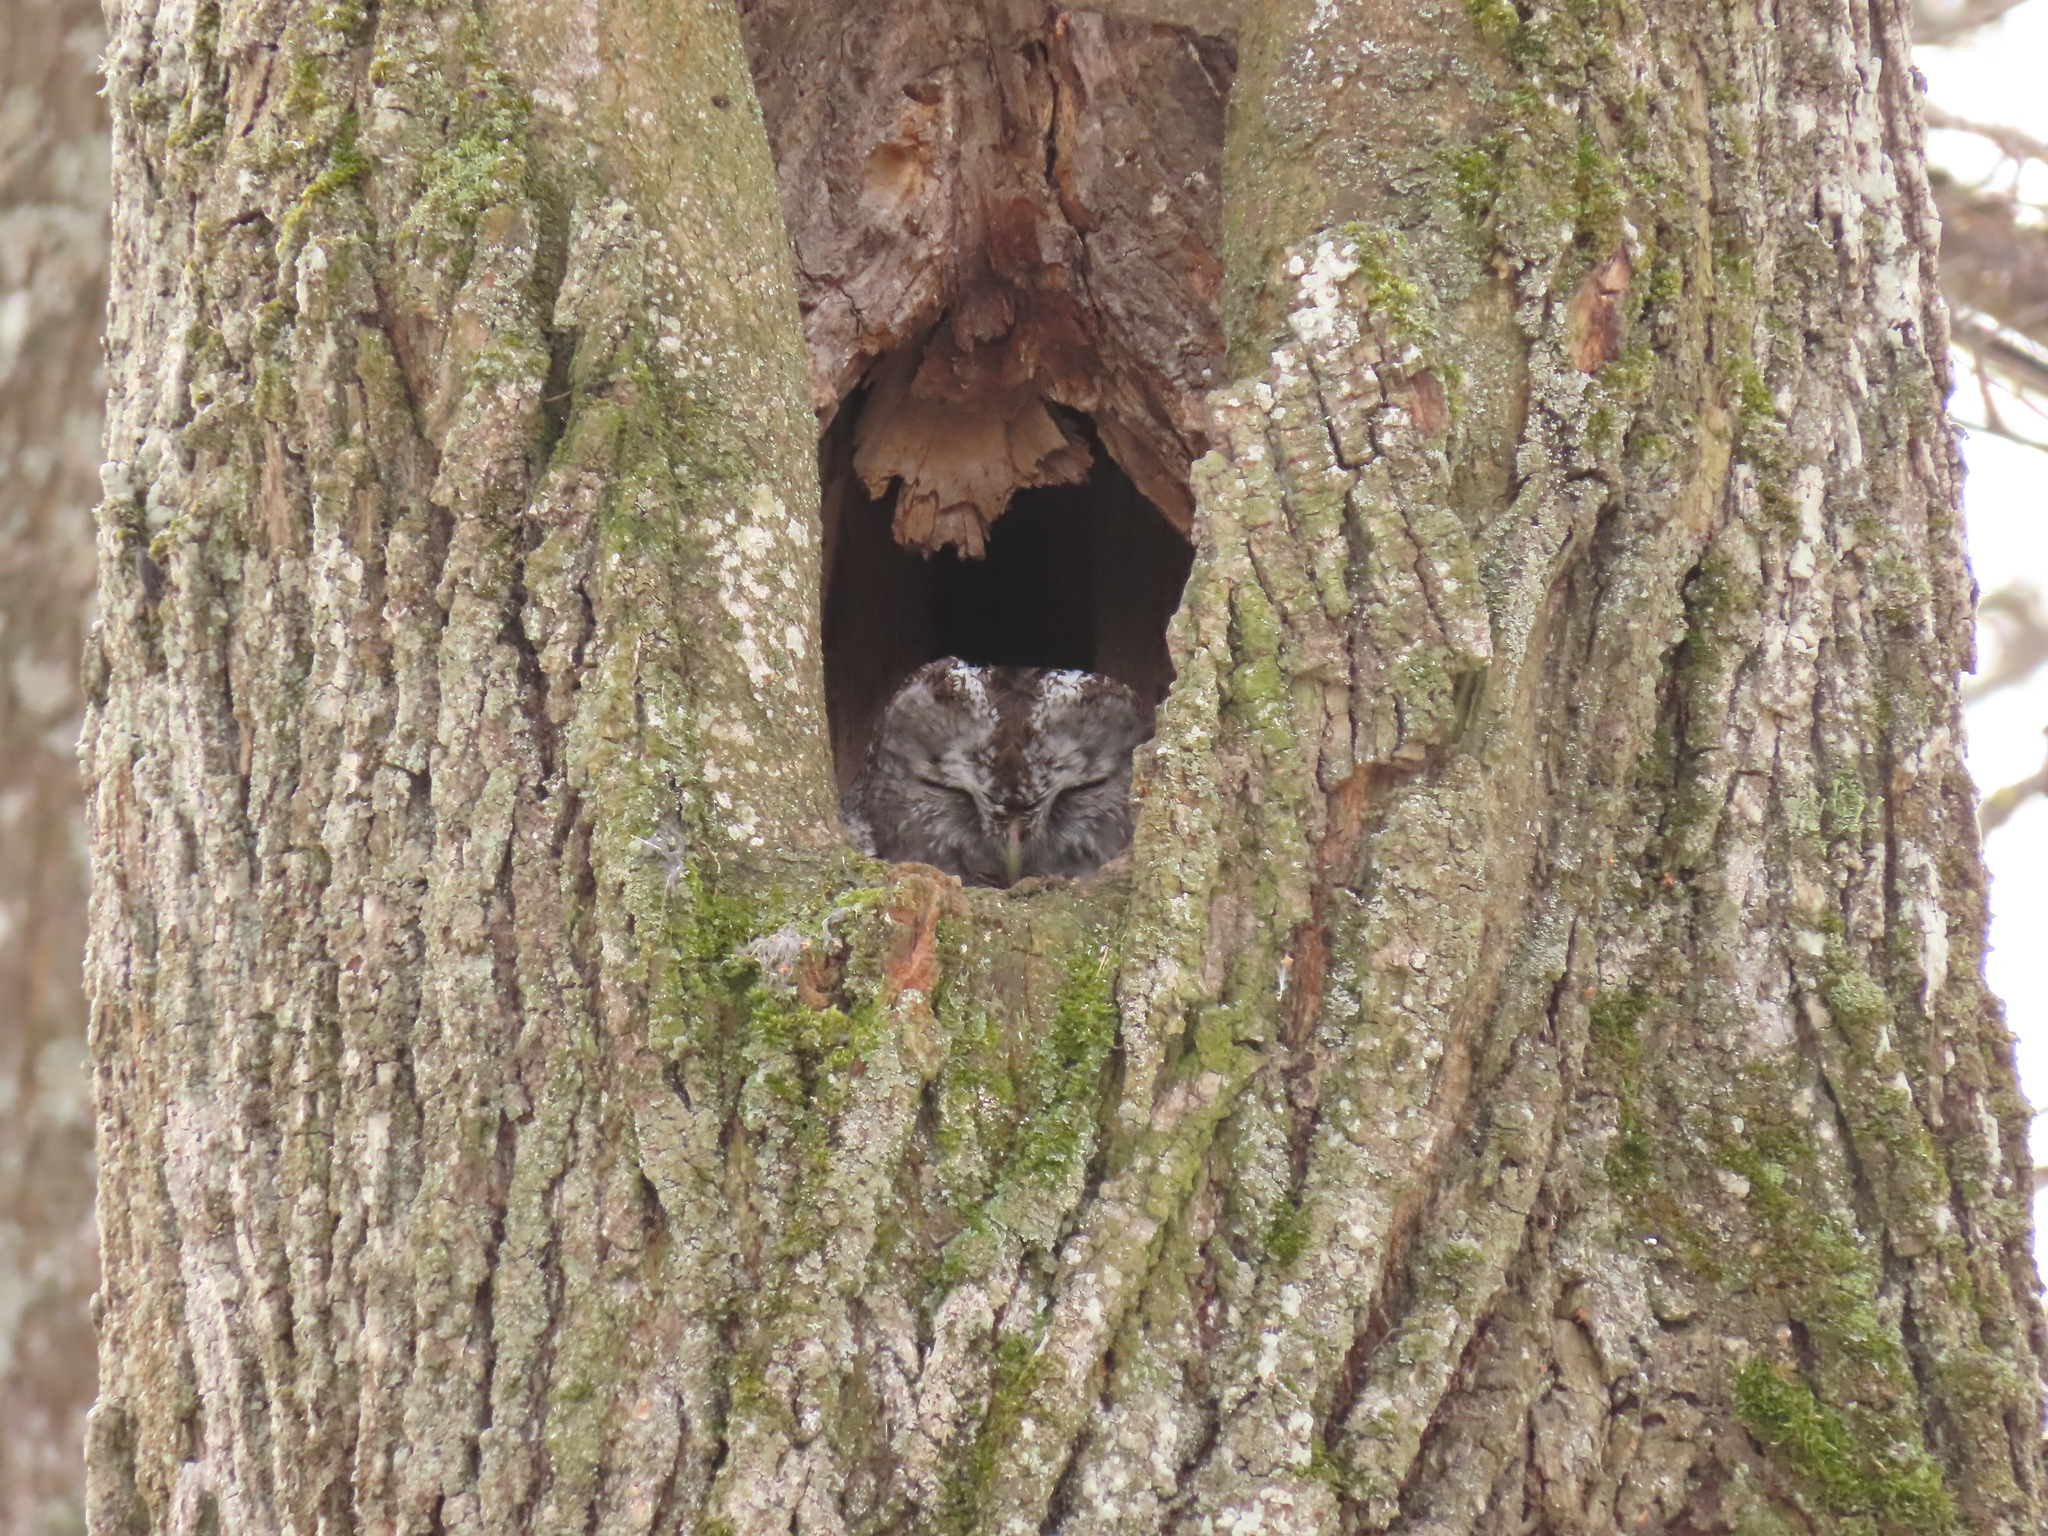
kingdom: Animalia
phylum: Chordata
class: Aves
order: Strigiformes
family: Strigidae
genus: Strix
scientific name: Strix aluco
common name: Tawny owl
